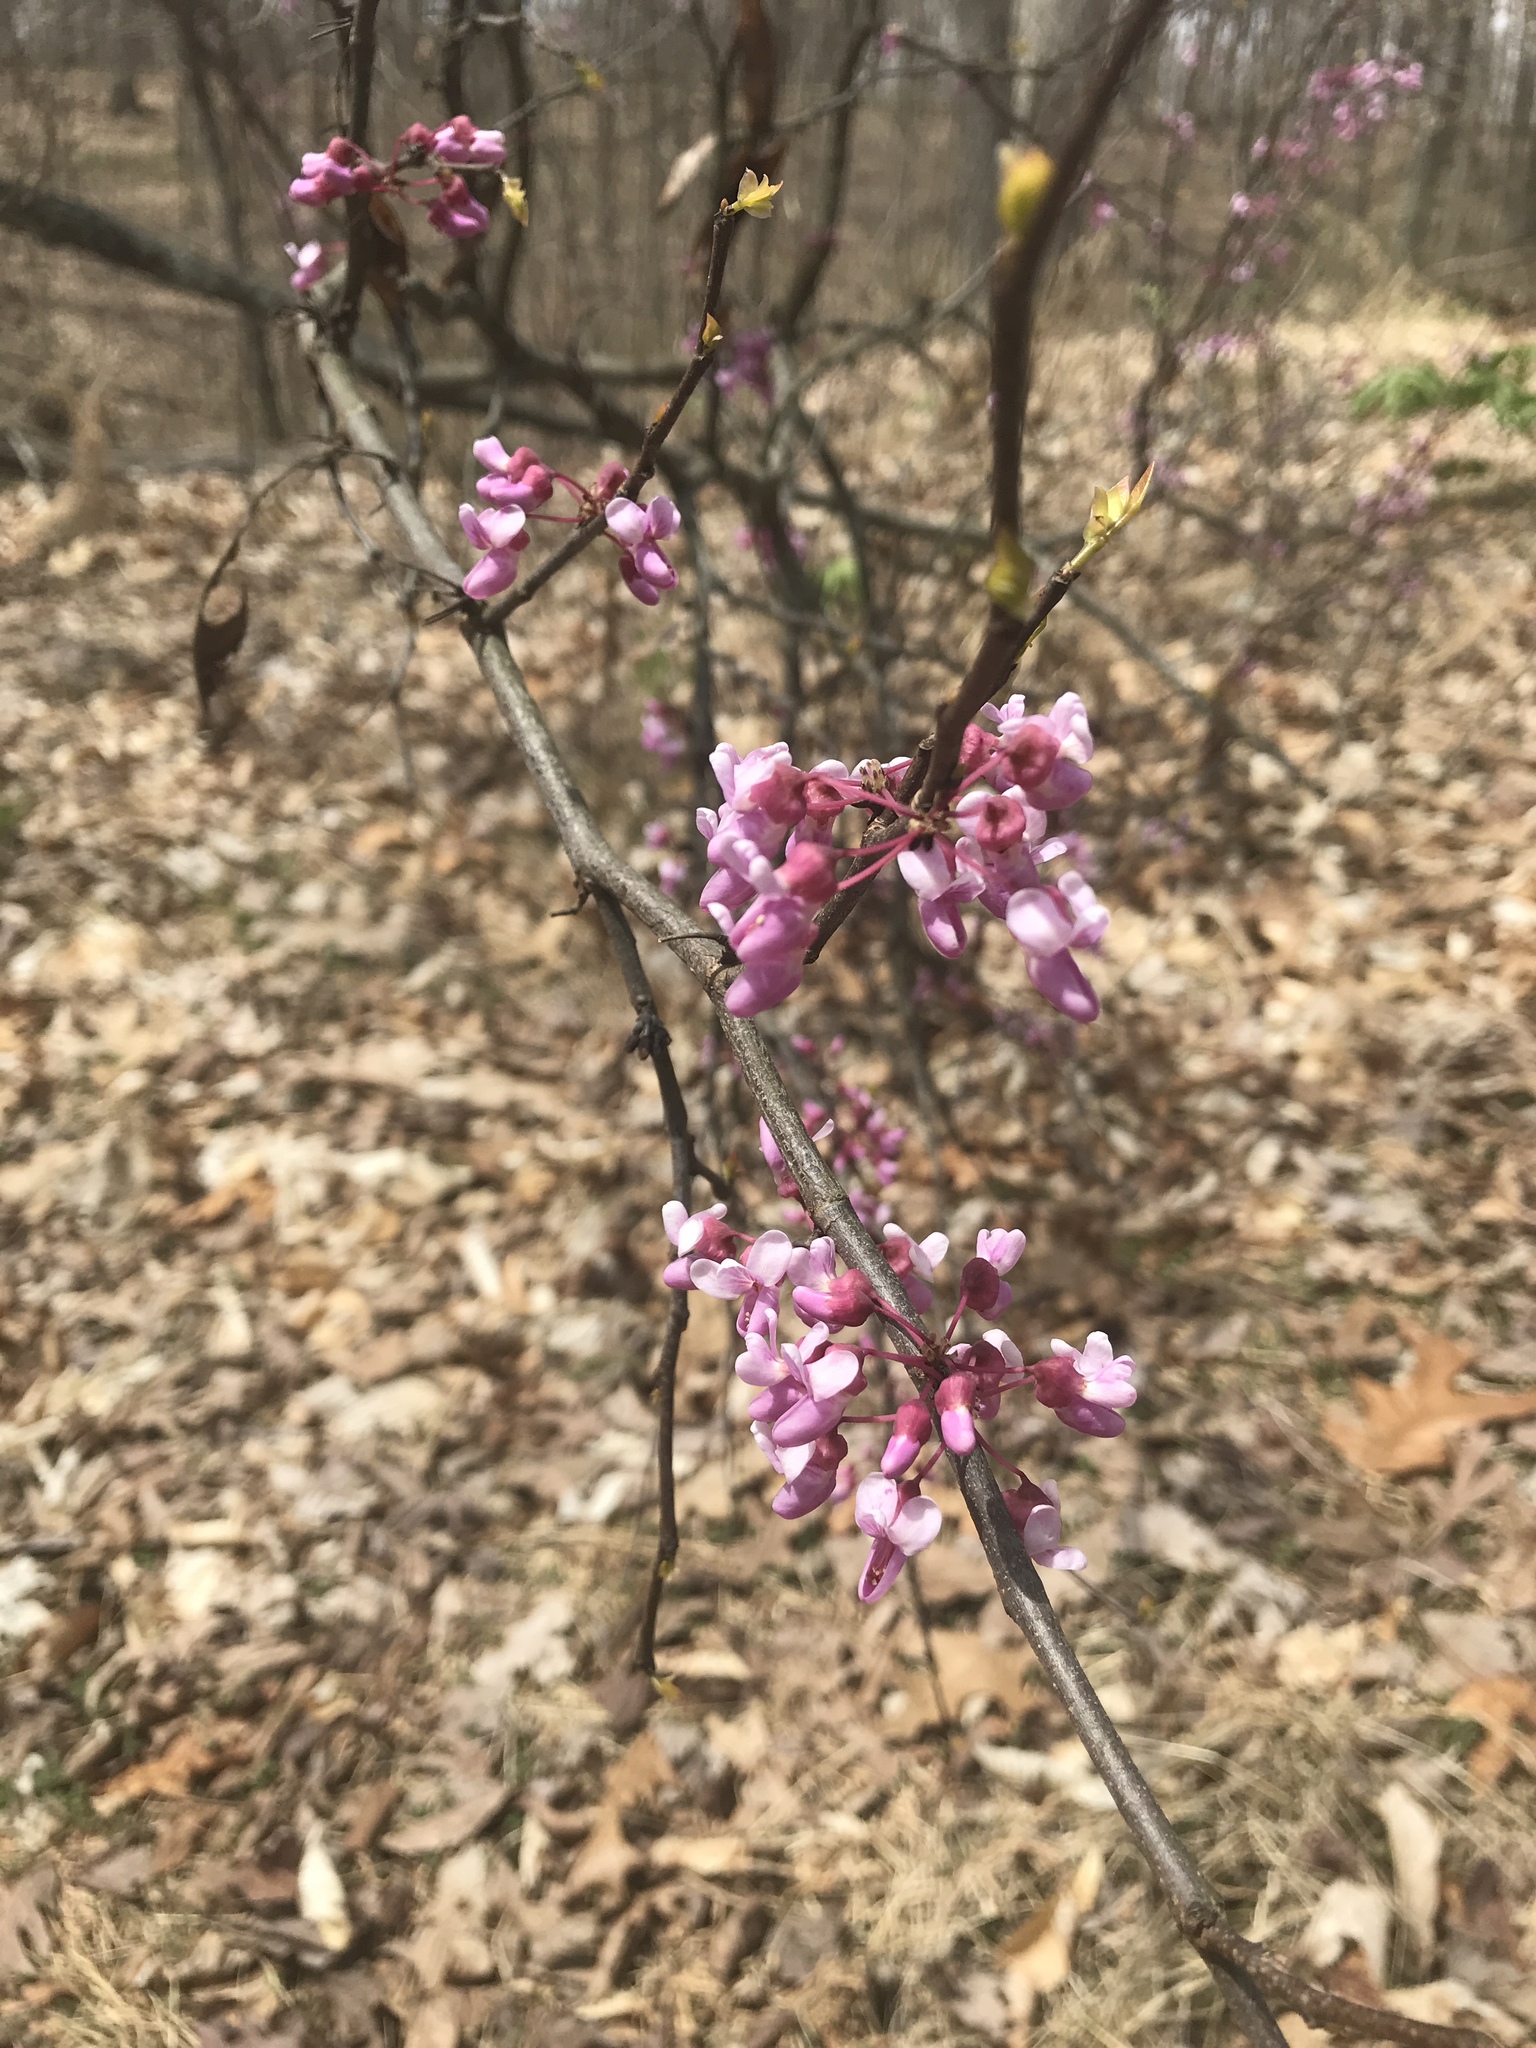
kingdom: Plantae
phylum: Tracheophyta
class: Magnoliopsida
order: Fabales
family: Fabaceae
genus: Cercis
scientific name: Cercis canadensis
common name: Eastern redbud
